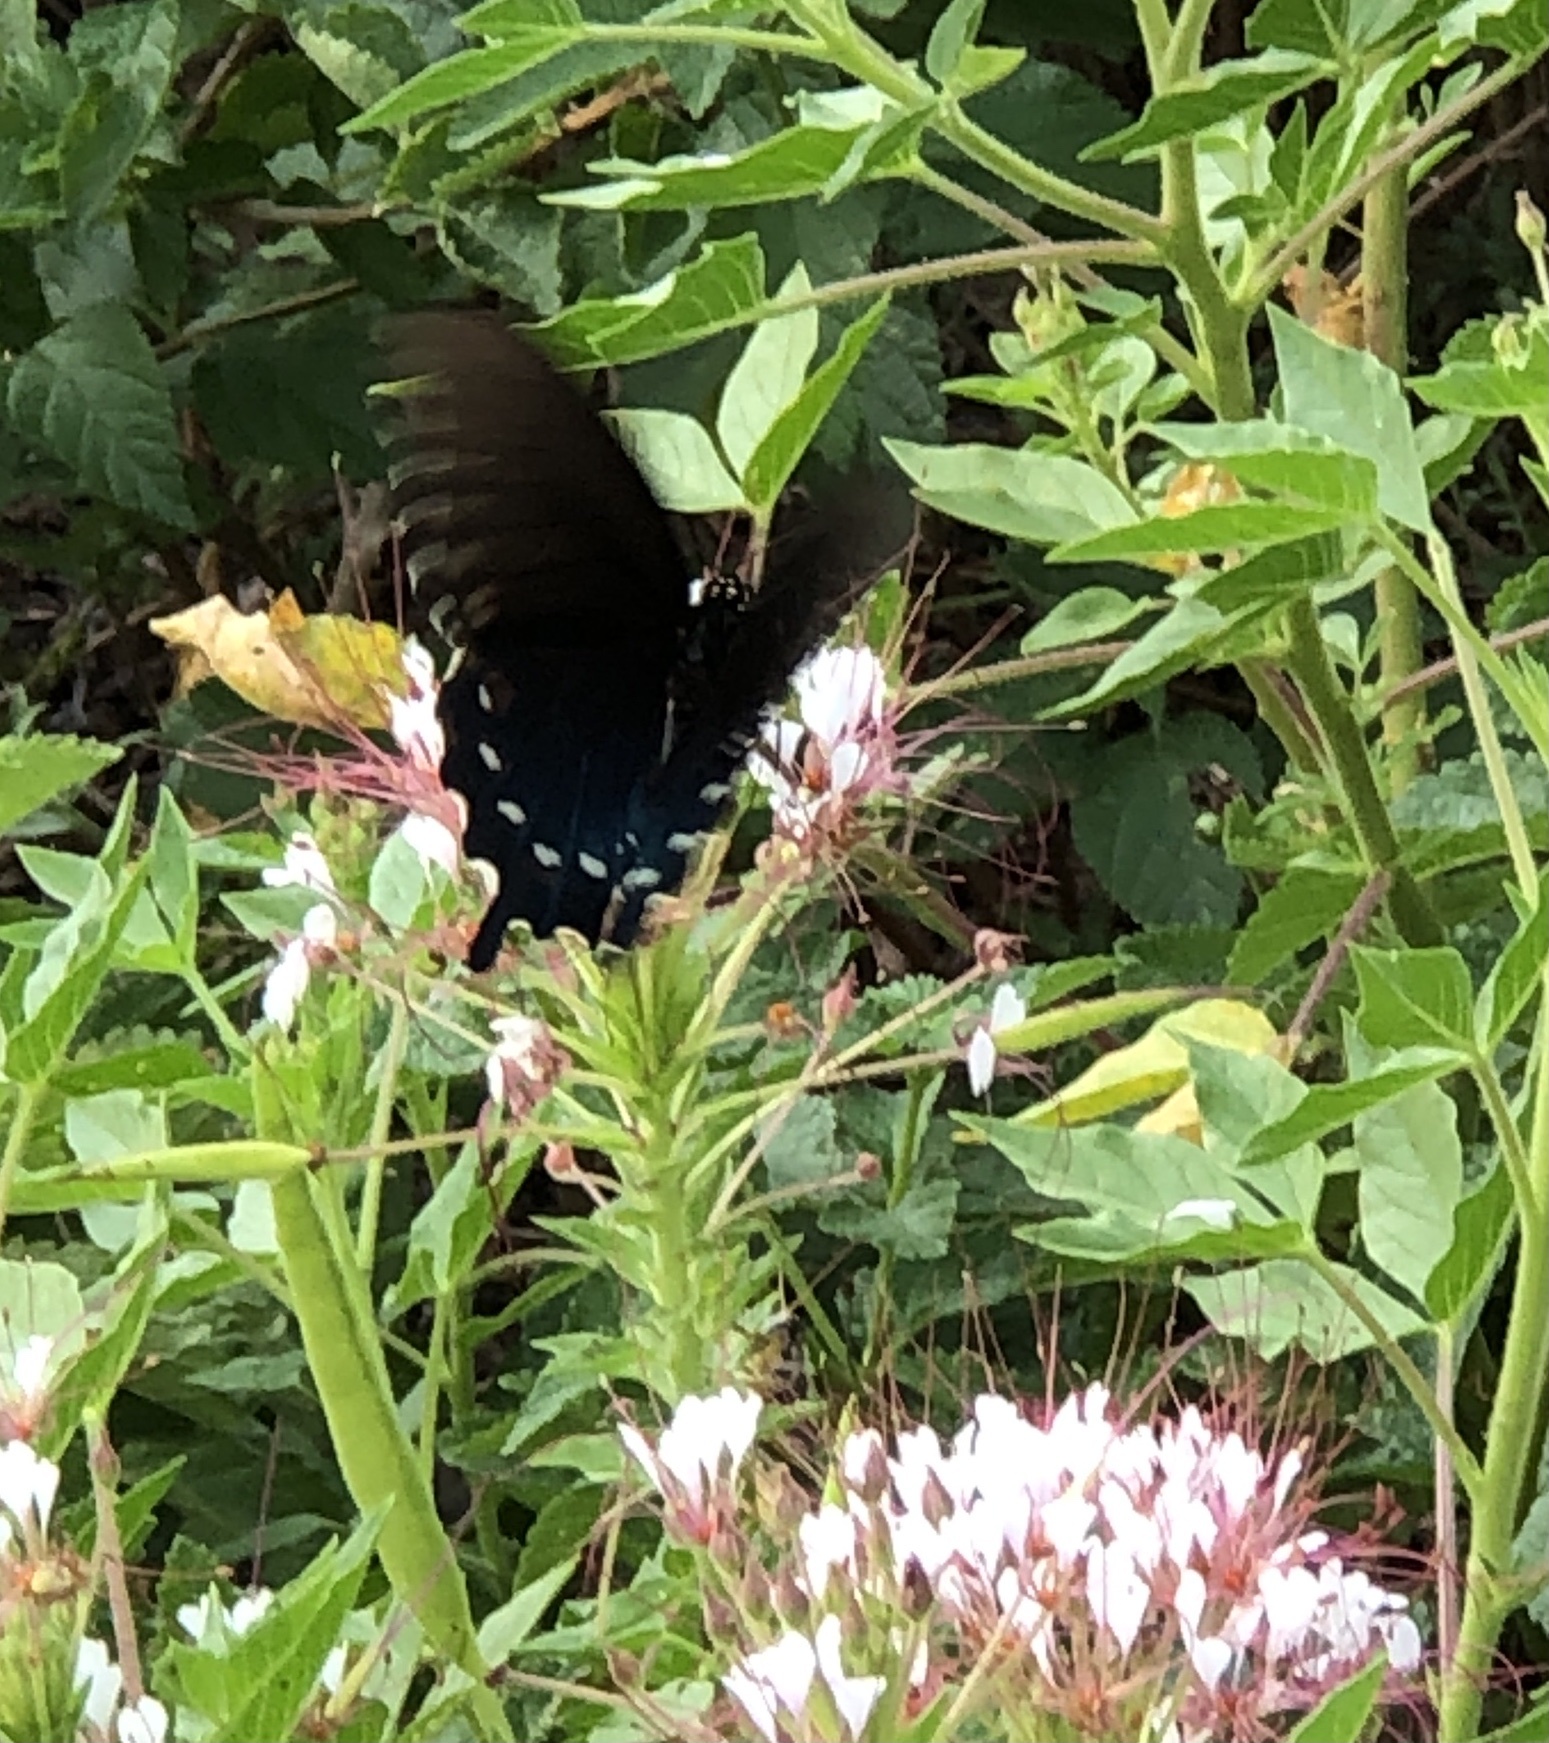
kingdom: Animalia
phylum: Arthropoda
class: Insecta
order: Lepidoptera
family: Papilionidae
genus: Battus
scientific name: Battus philenor
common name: Pipevine swallowtail
